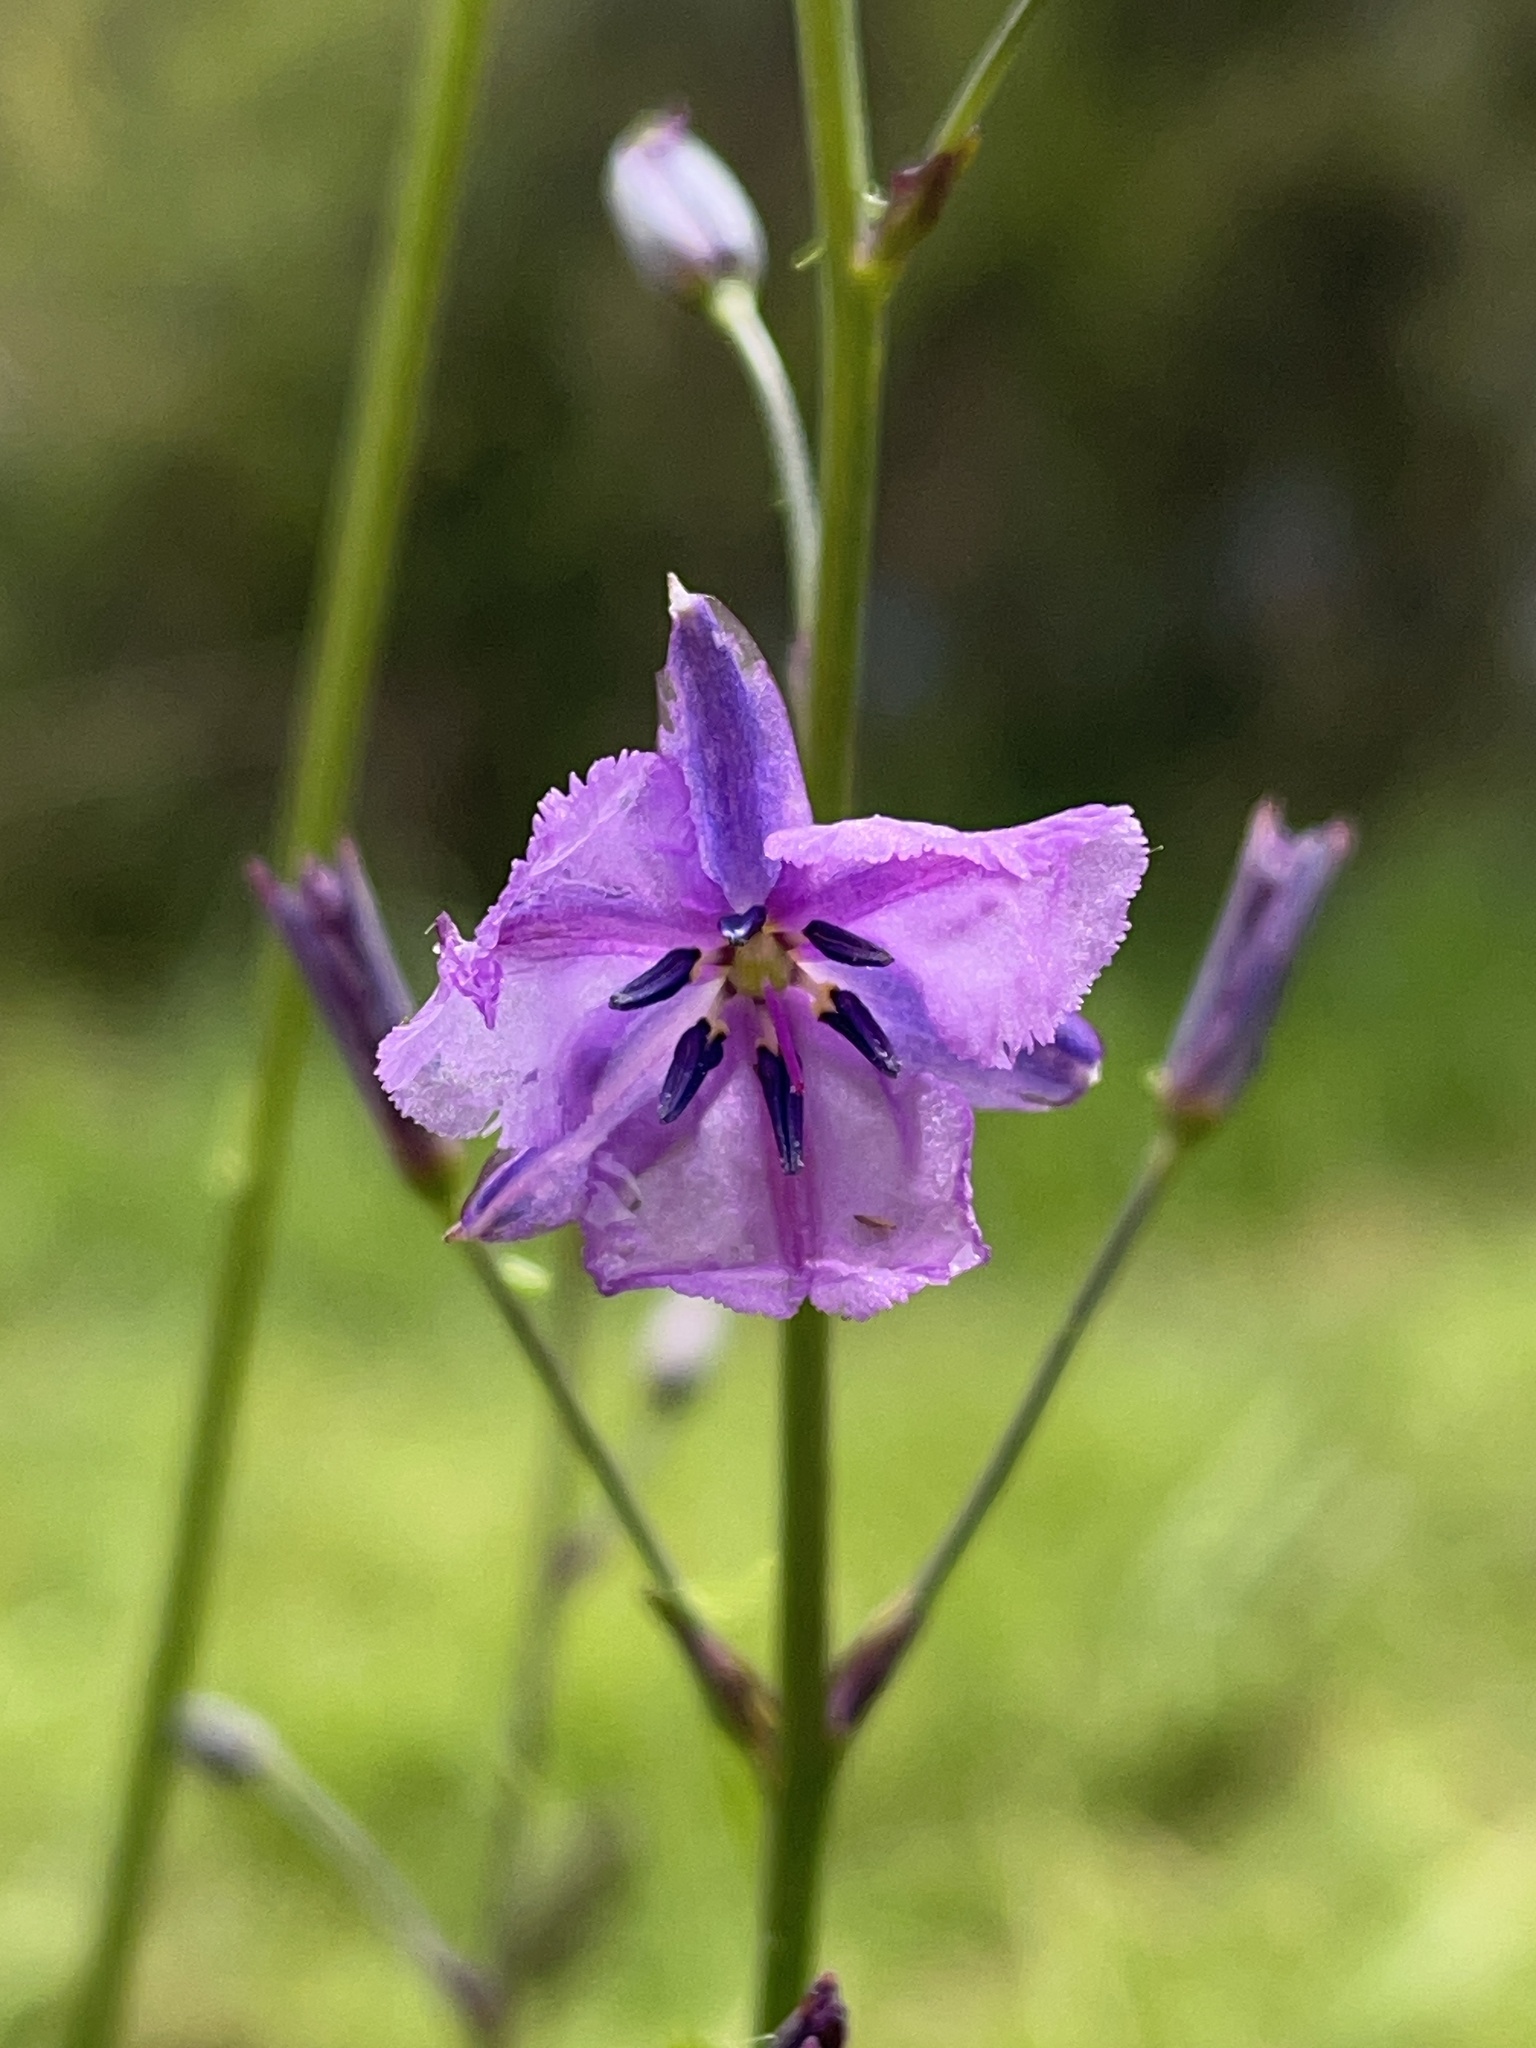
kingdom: Plantae
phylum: Tracheophyta
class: Liliopsida
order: Asparagales
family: Asparagaceae
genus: Arthropodium
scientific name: Arthropodium strictum
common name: Chocolate-lily
